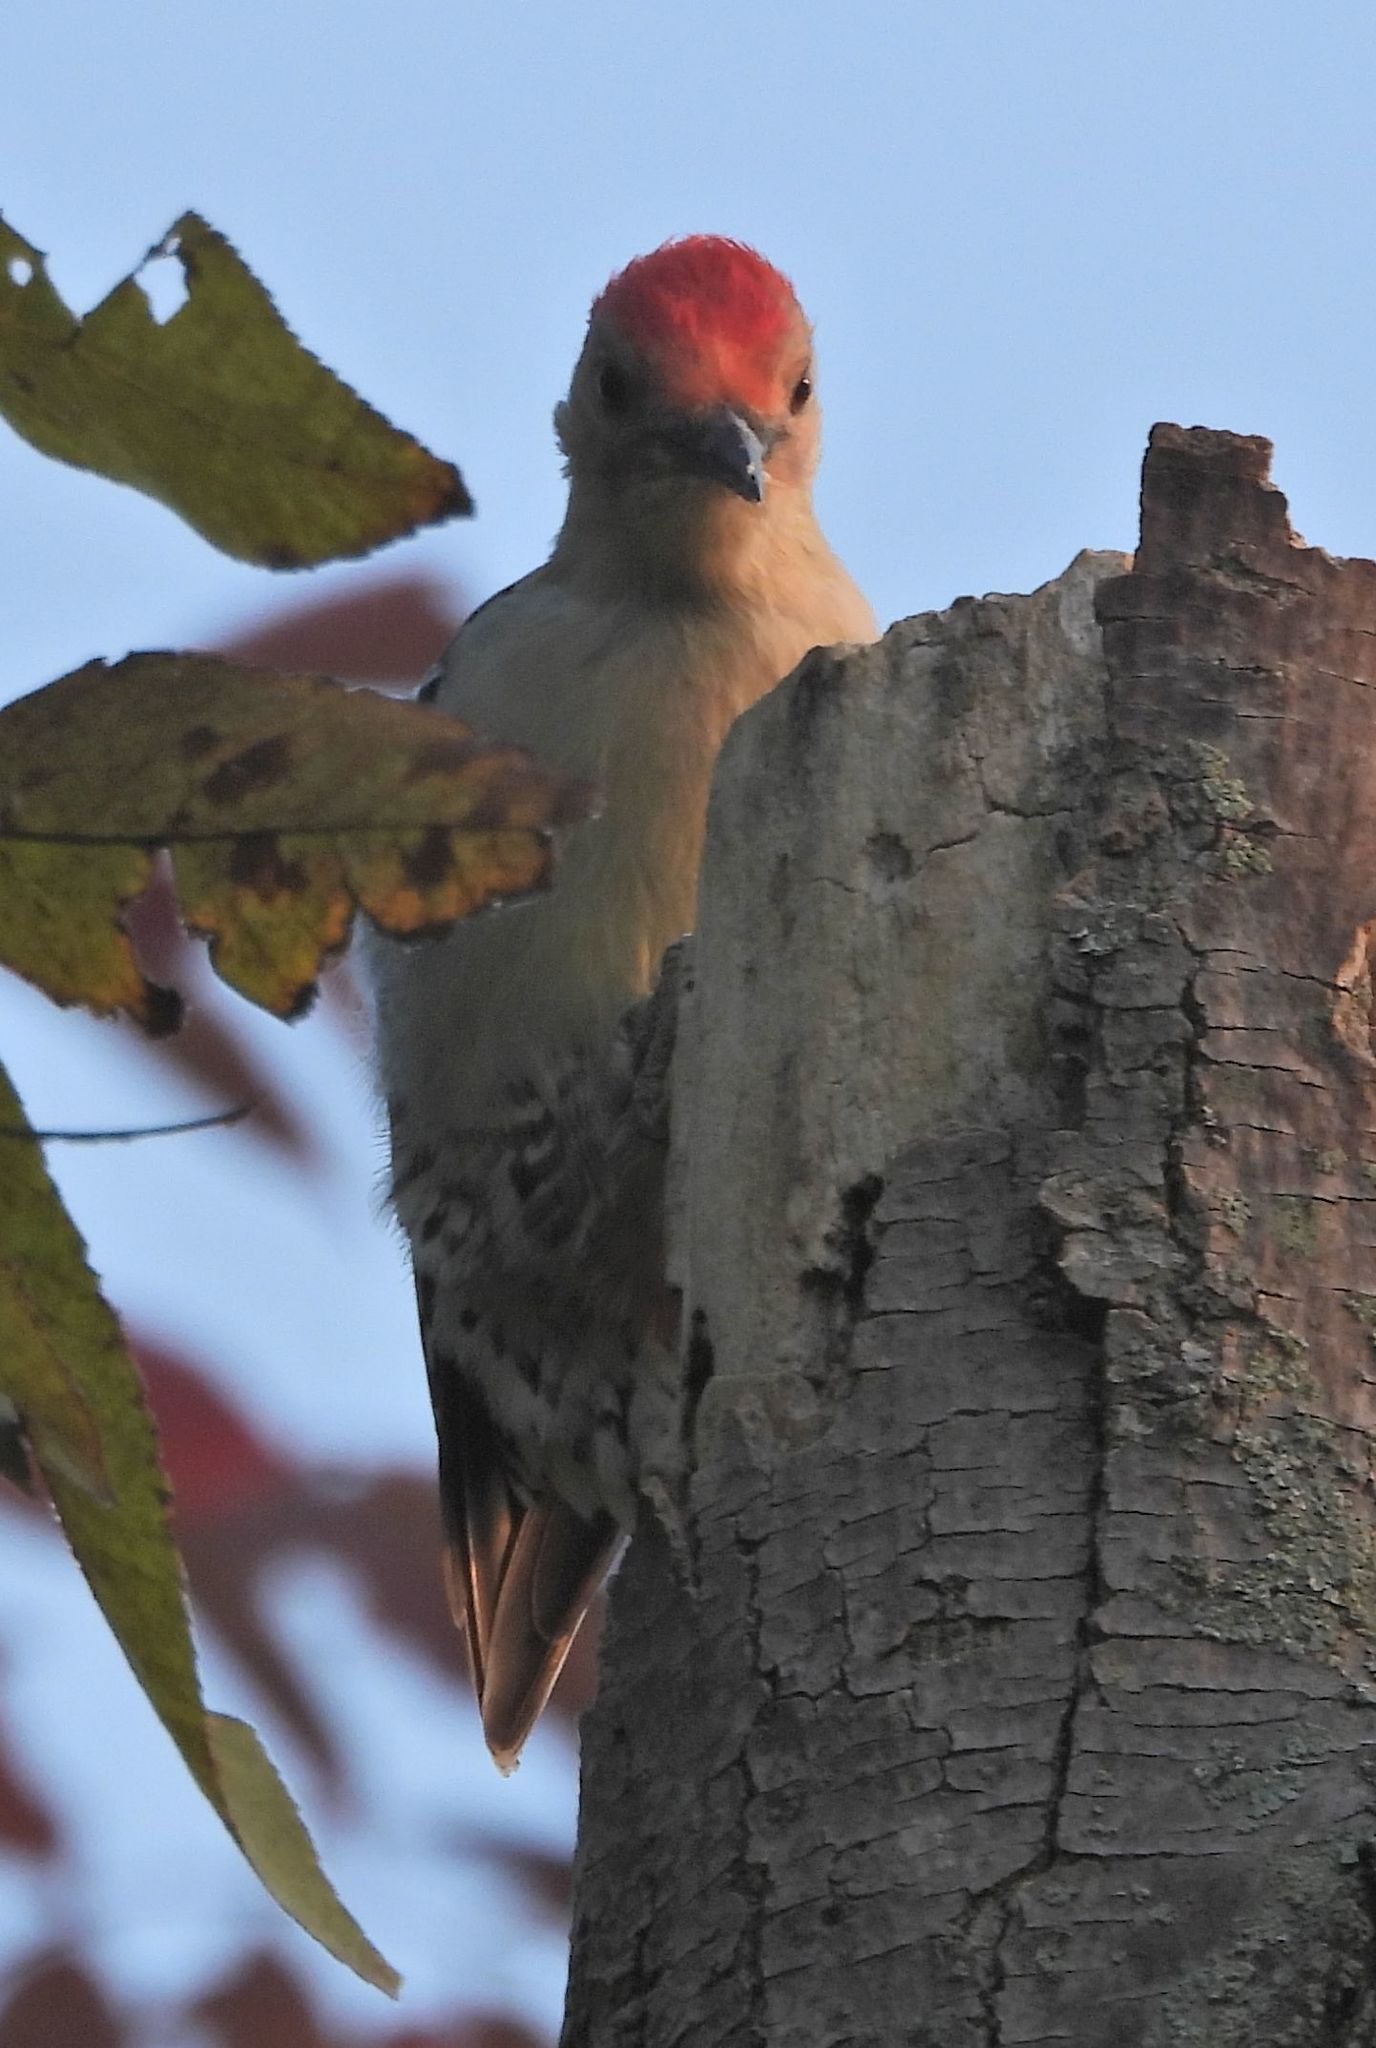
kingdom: Animalia
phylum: Chordata
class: Aves
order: Piciformes
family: Picidae
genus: Melanerpes
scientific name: Melanerpes carolinus
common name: Red-bellied woodpecker
